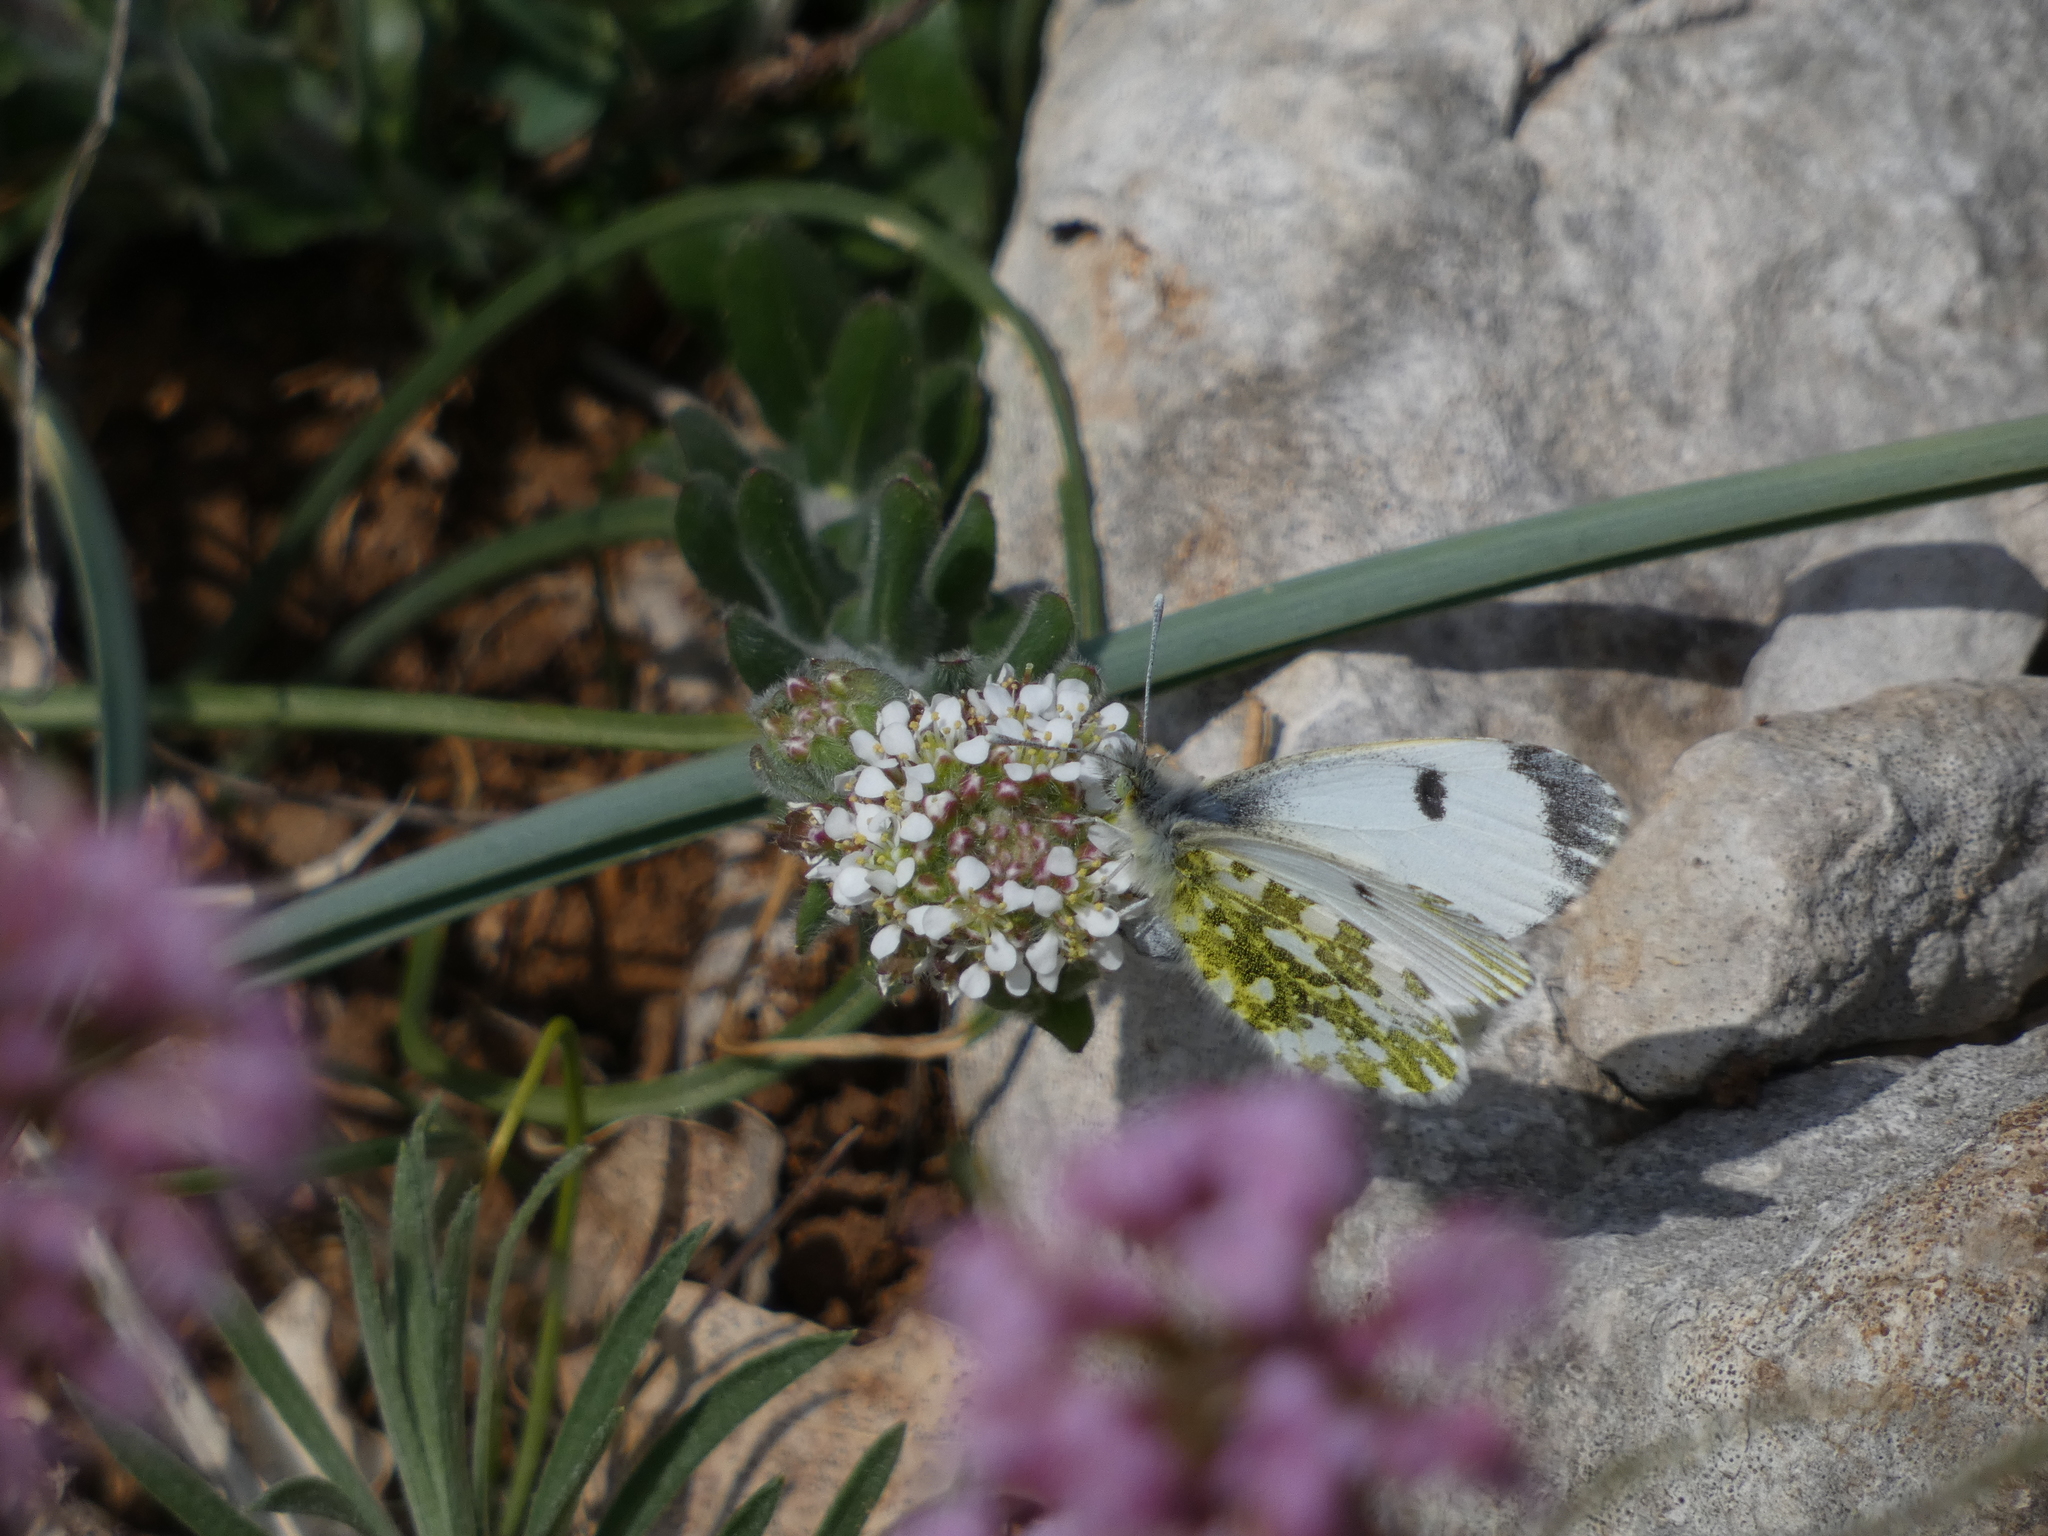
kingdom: Animalia
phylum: Arthropoda
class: Insecta
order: Lepidoptera
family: Pieridae
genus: Anthocharis
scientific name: Anthocharis cardamines
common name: Orange-tip
